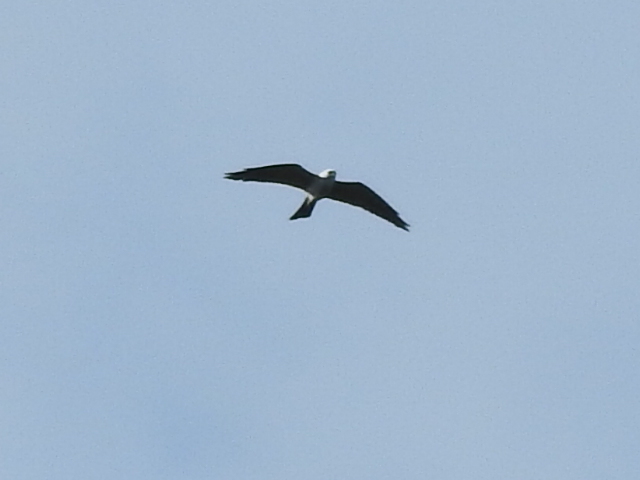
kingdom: Animalia
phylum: Chordata
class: Aves
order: Accipitriformes
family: Accipitridae
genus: Ictinia
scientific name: Ictinia mississippiensis
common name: Mississippi kite
